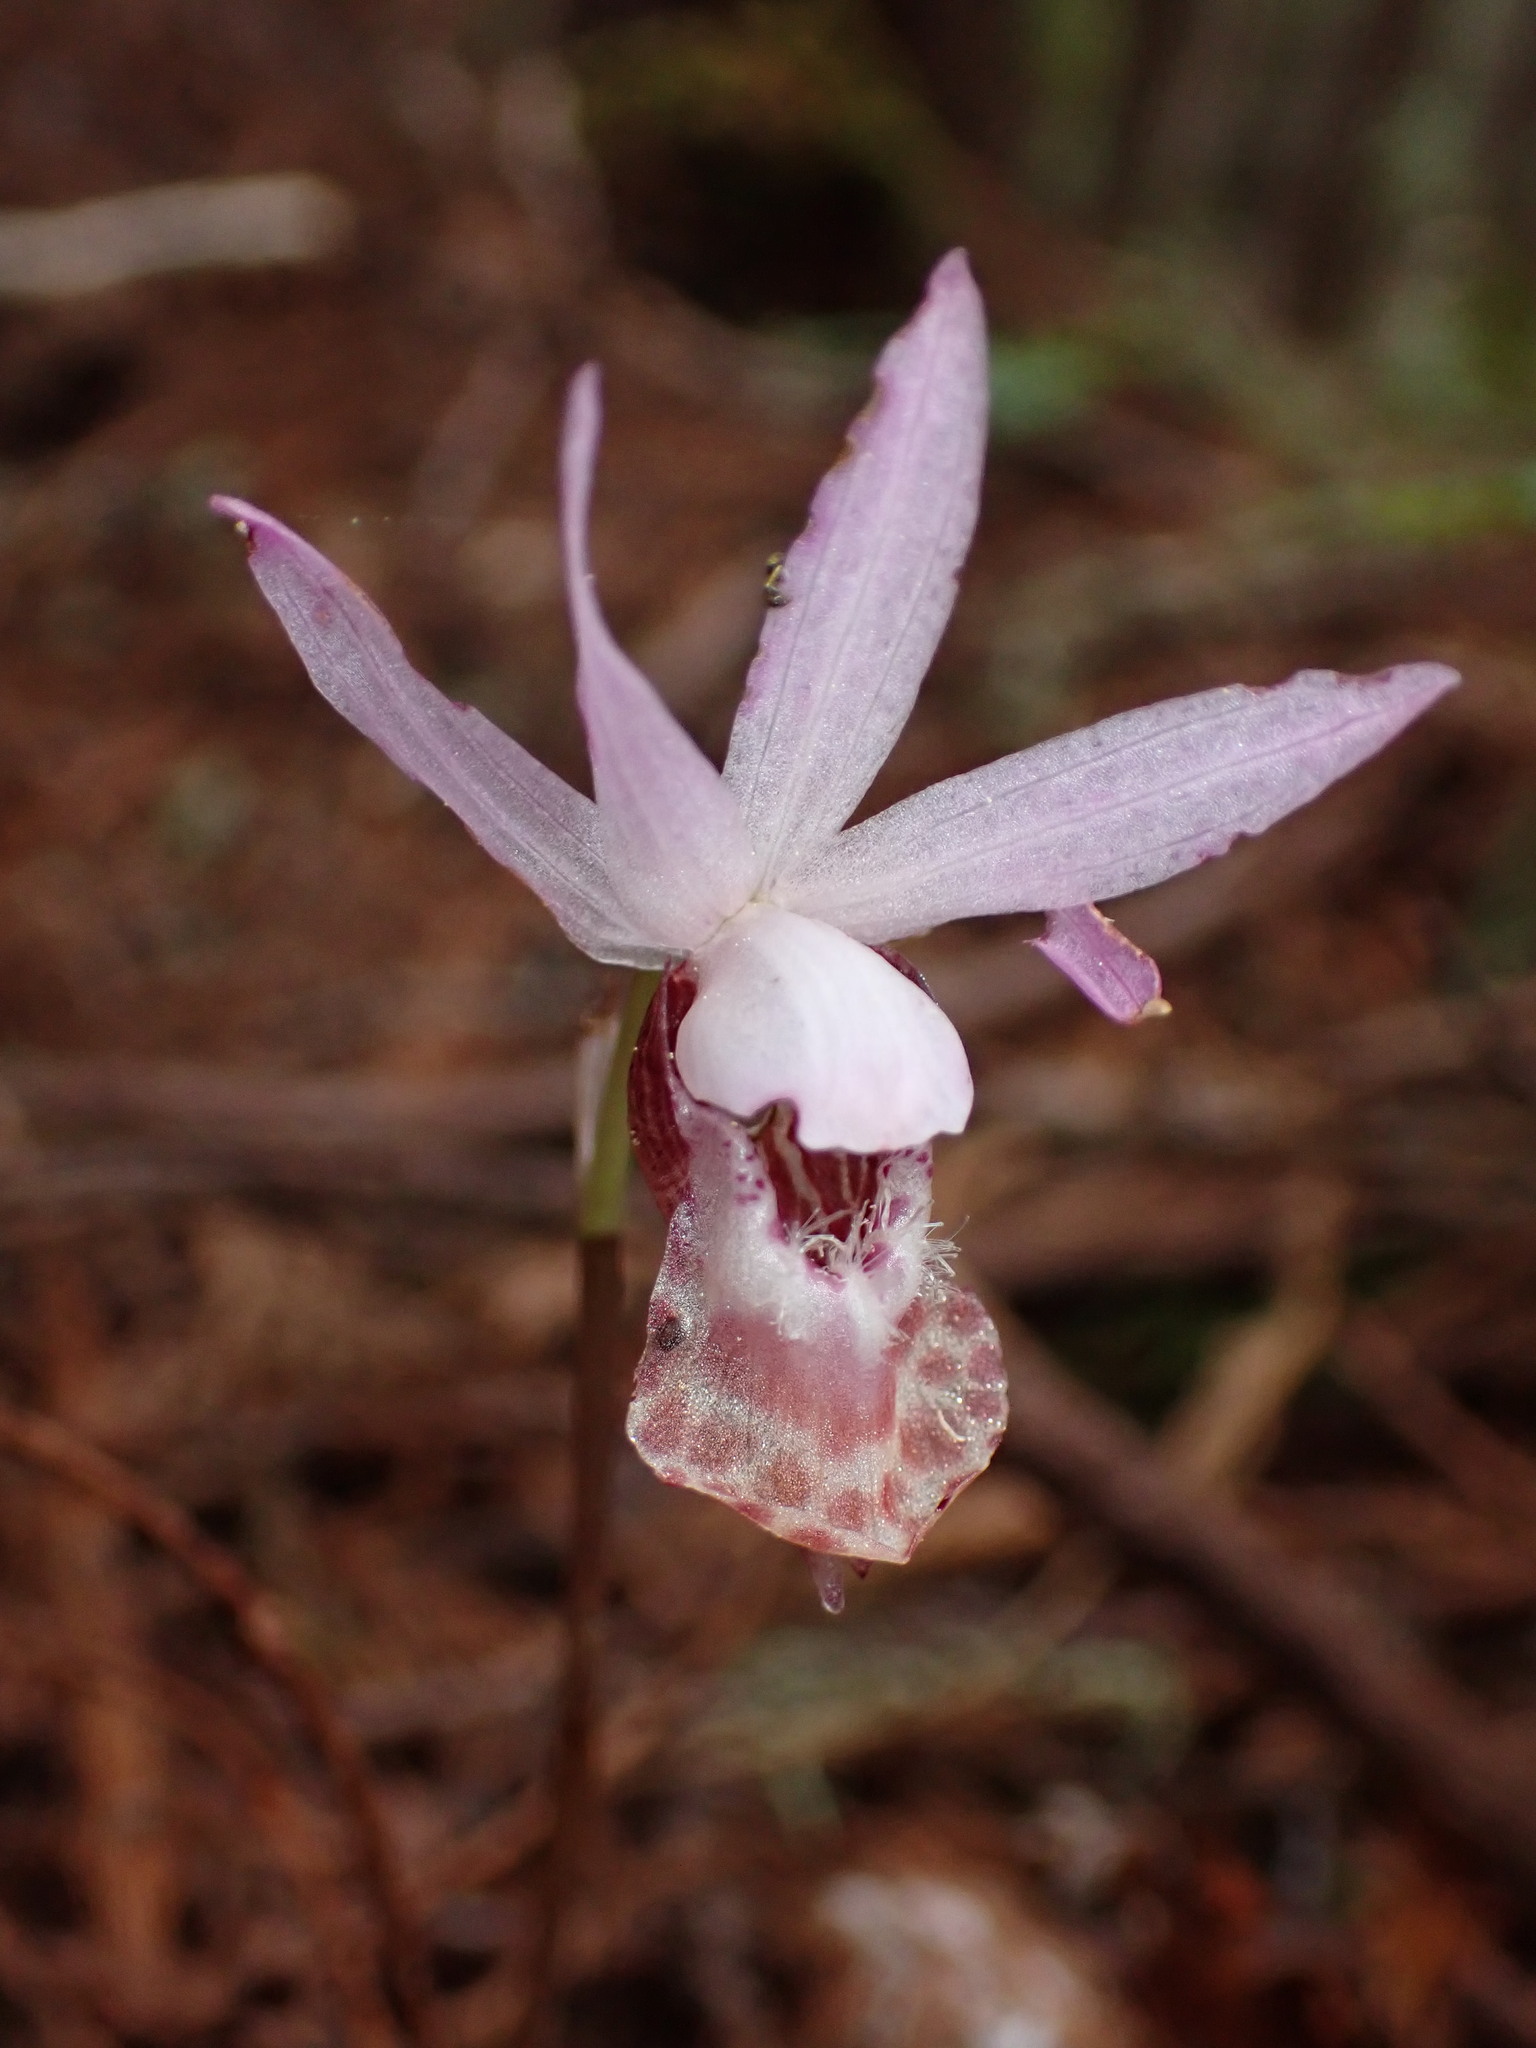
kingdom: Plantae
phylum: Tracheophyta
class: Liliopsida
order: Asparagales
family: Orchidaceae
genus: Calypso
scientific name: Calypso bulbosa
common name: Calypso
